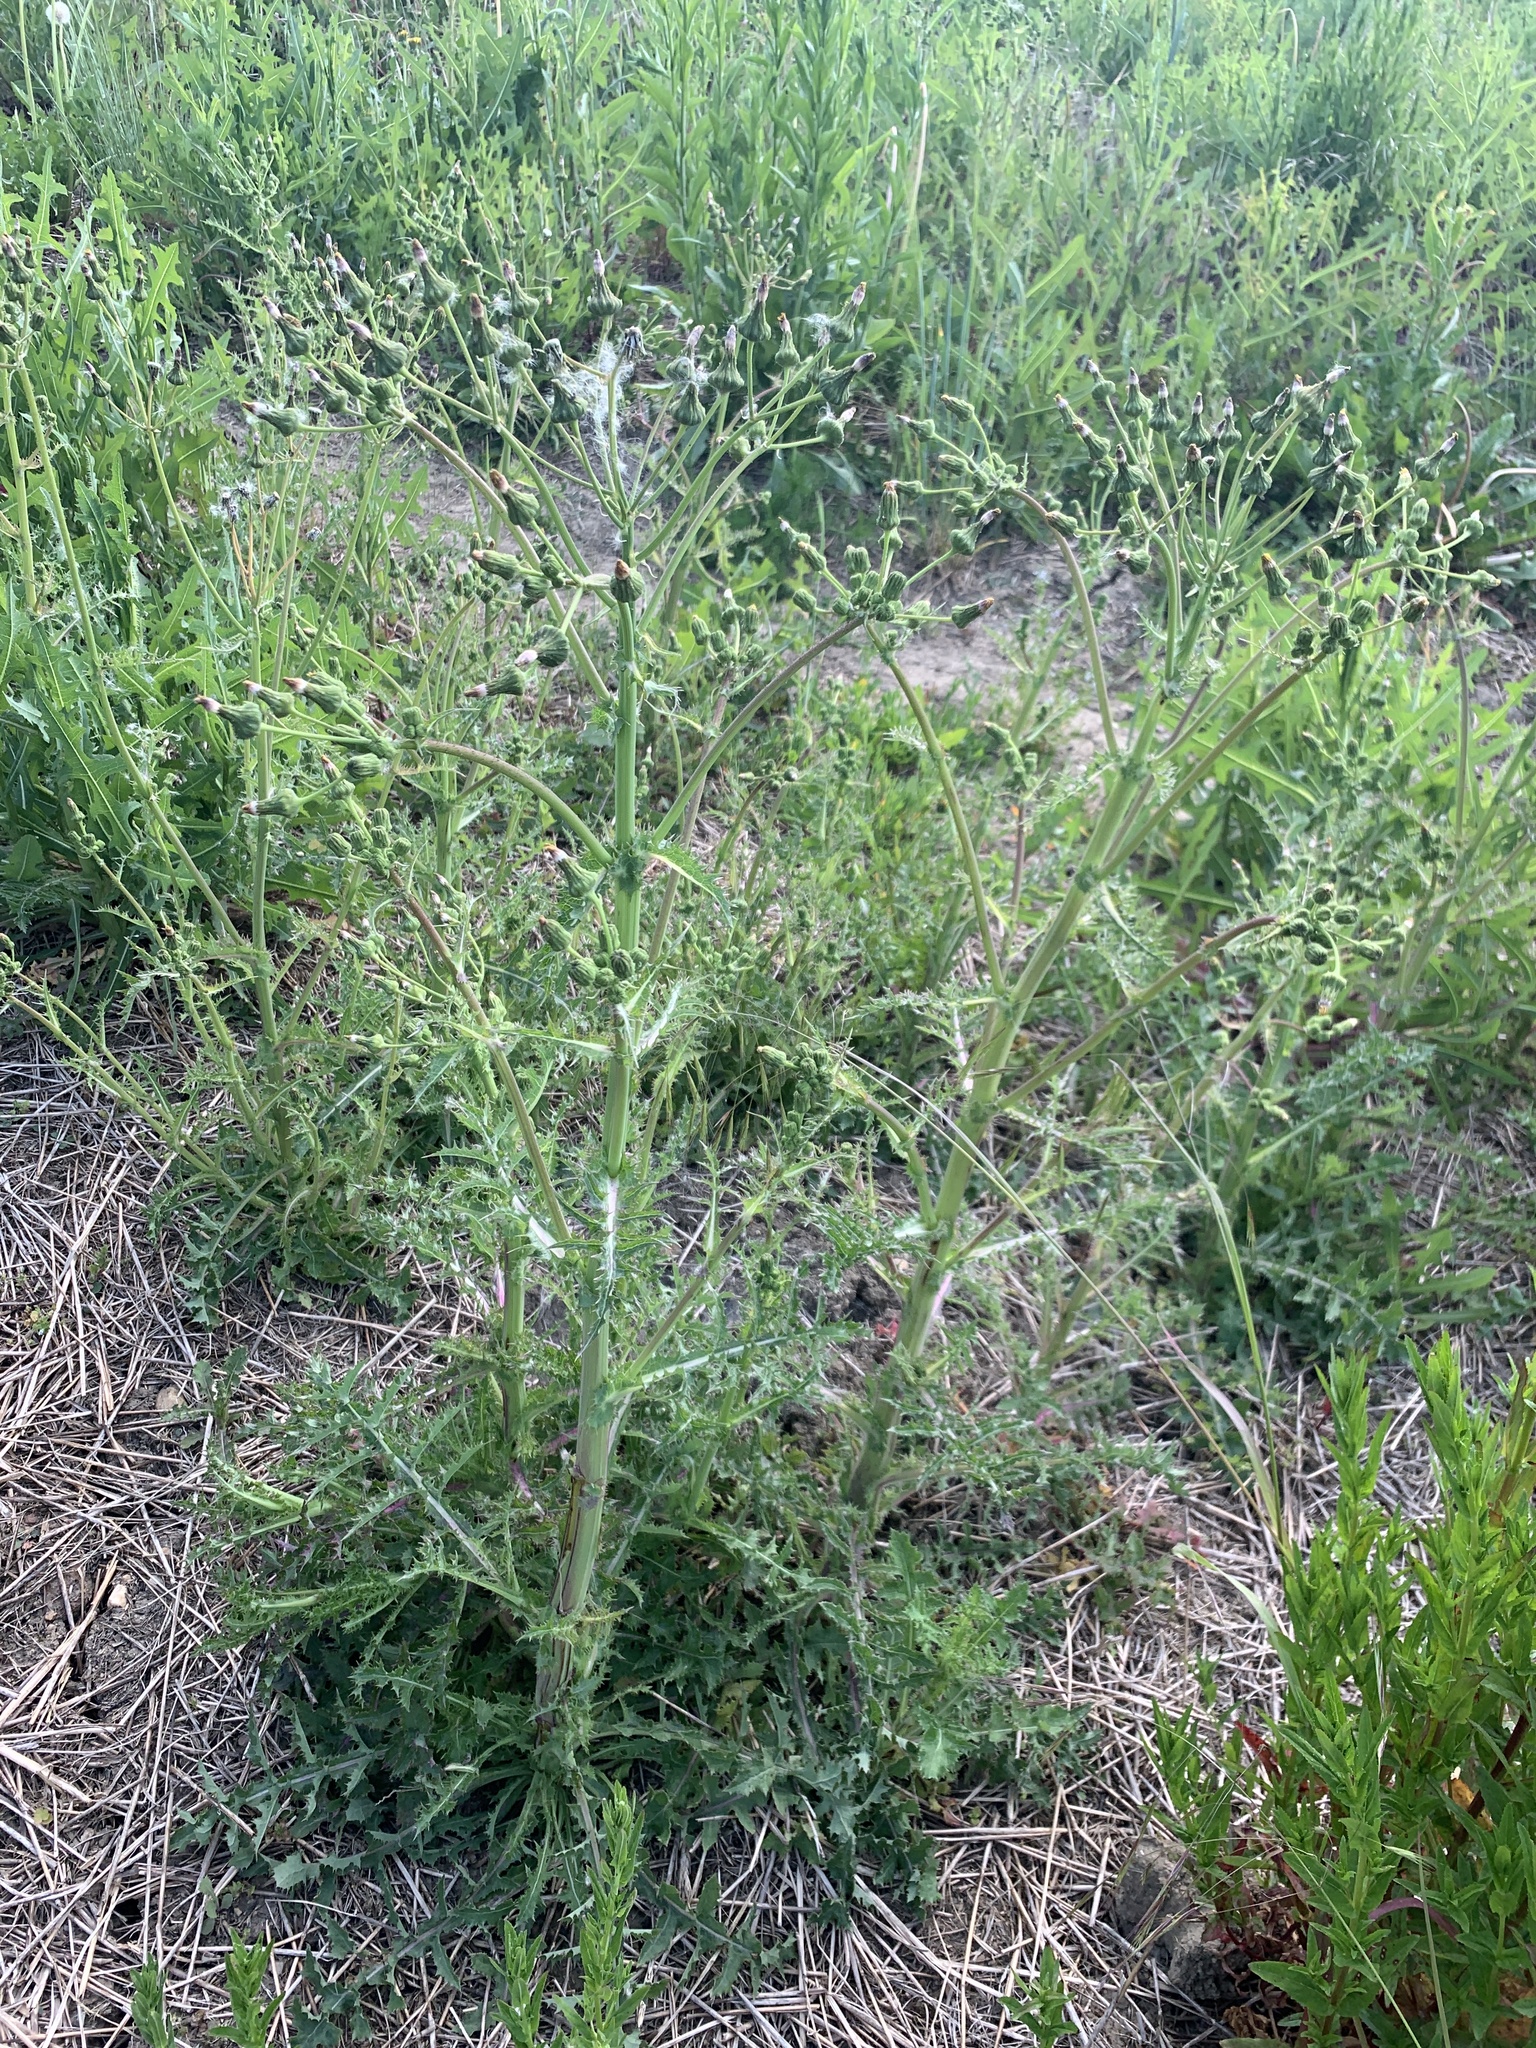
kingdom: Plantae
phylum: Tracheophyta
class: Magnoliopsida
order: Asterales
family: Asteraceae
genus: Sonchus
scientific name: Sonchus asper
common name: Prickly sow-thistle
